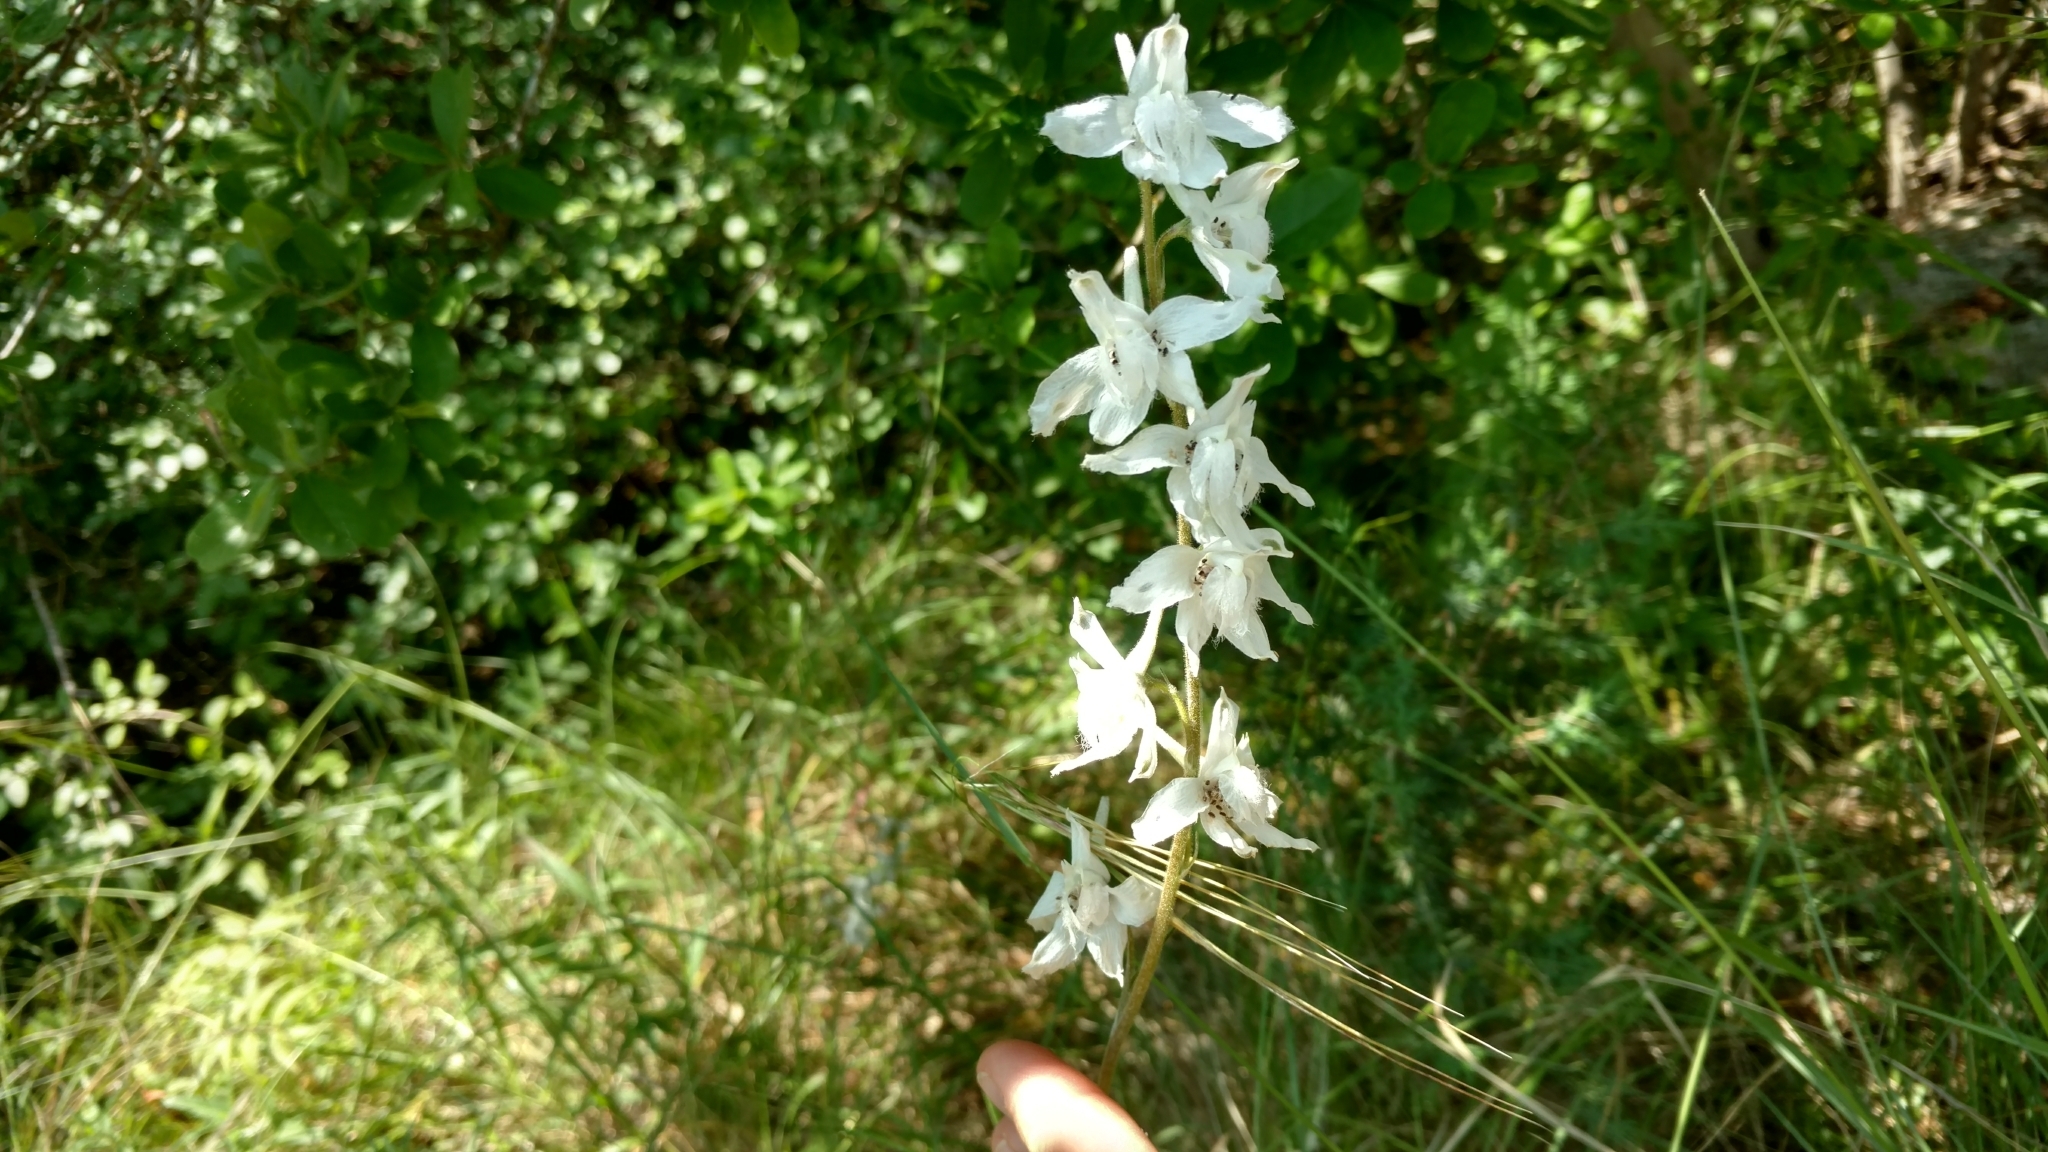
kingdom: Plantae
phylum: Tracheophyta
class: Magnoliopsida
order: Ranunculales
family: Ranunculaceae
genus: Delphinium
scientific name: Delphinium carolinianum
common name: Carolina larkspur
